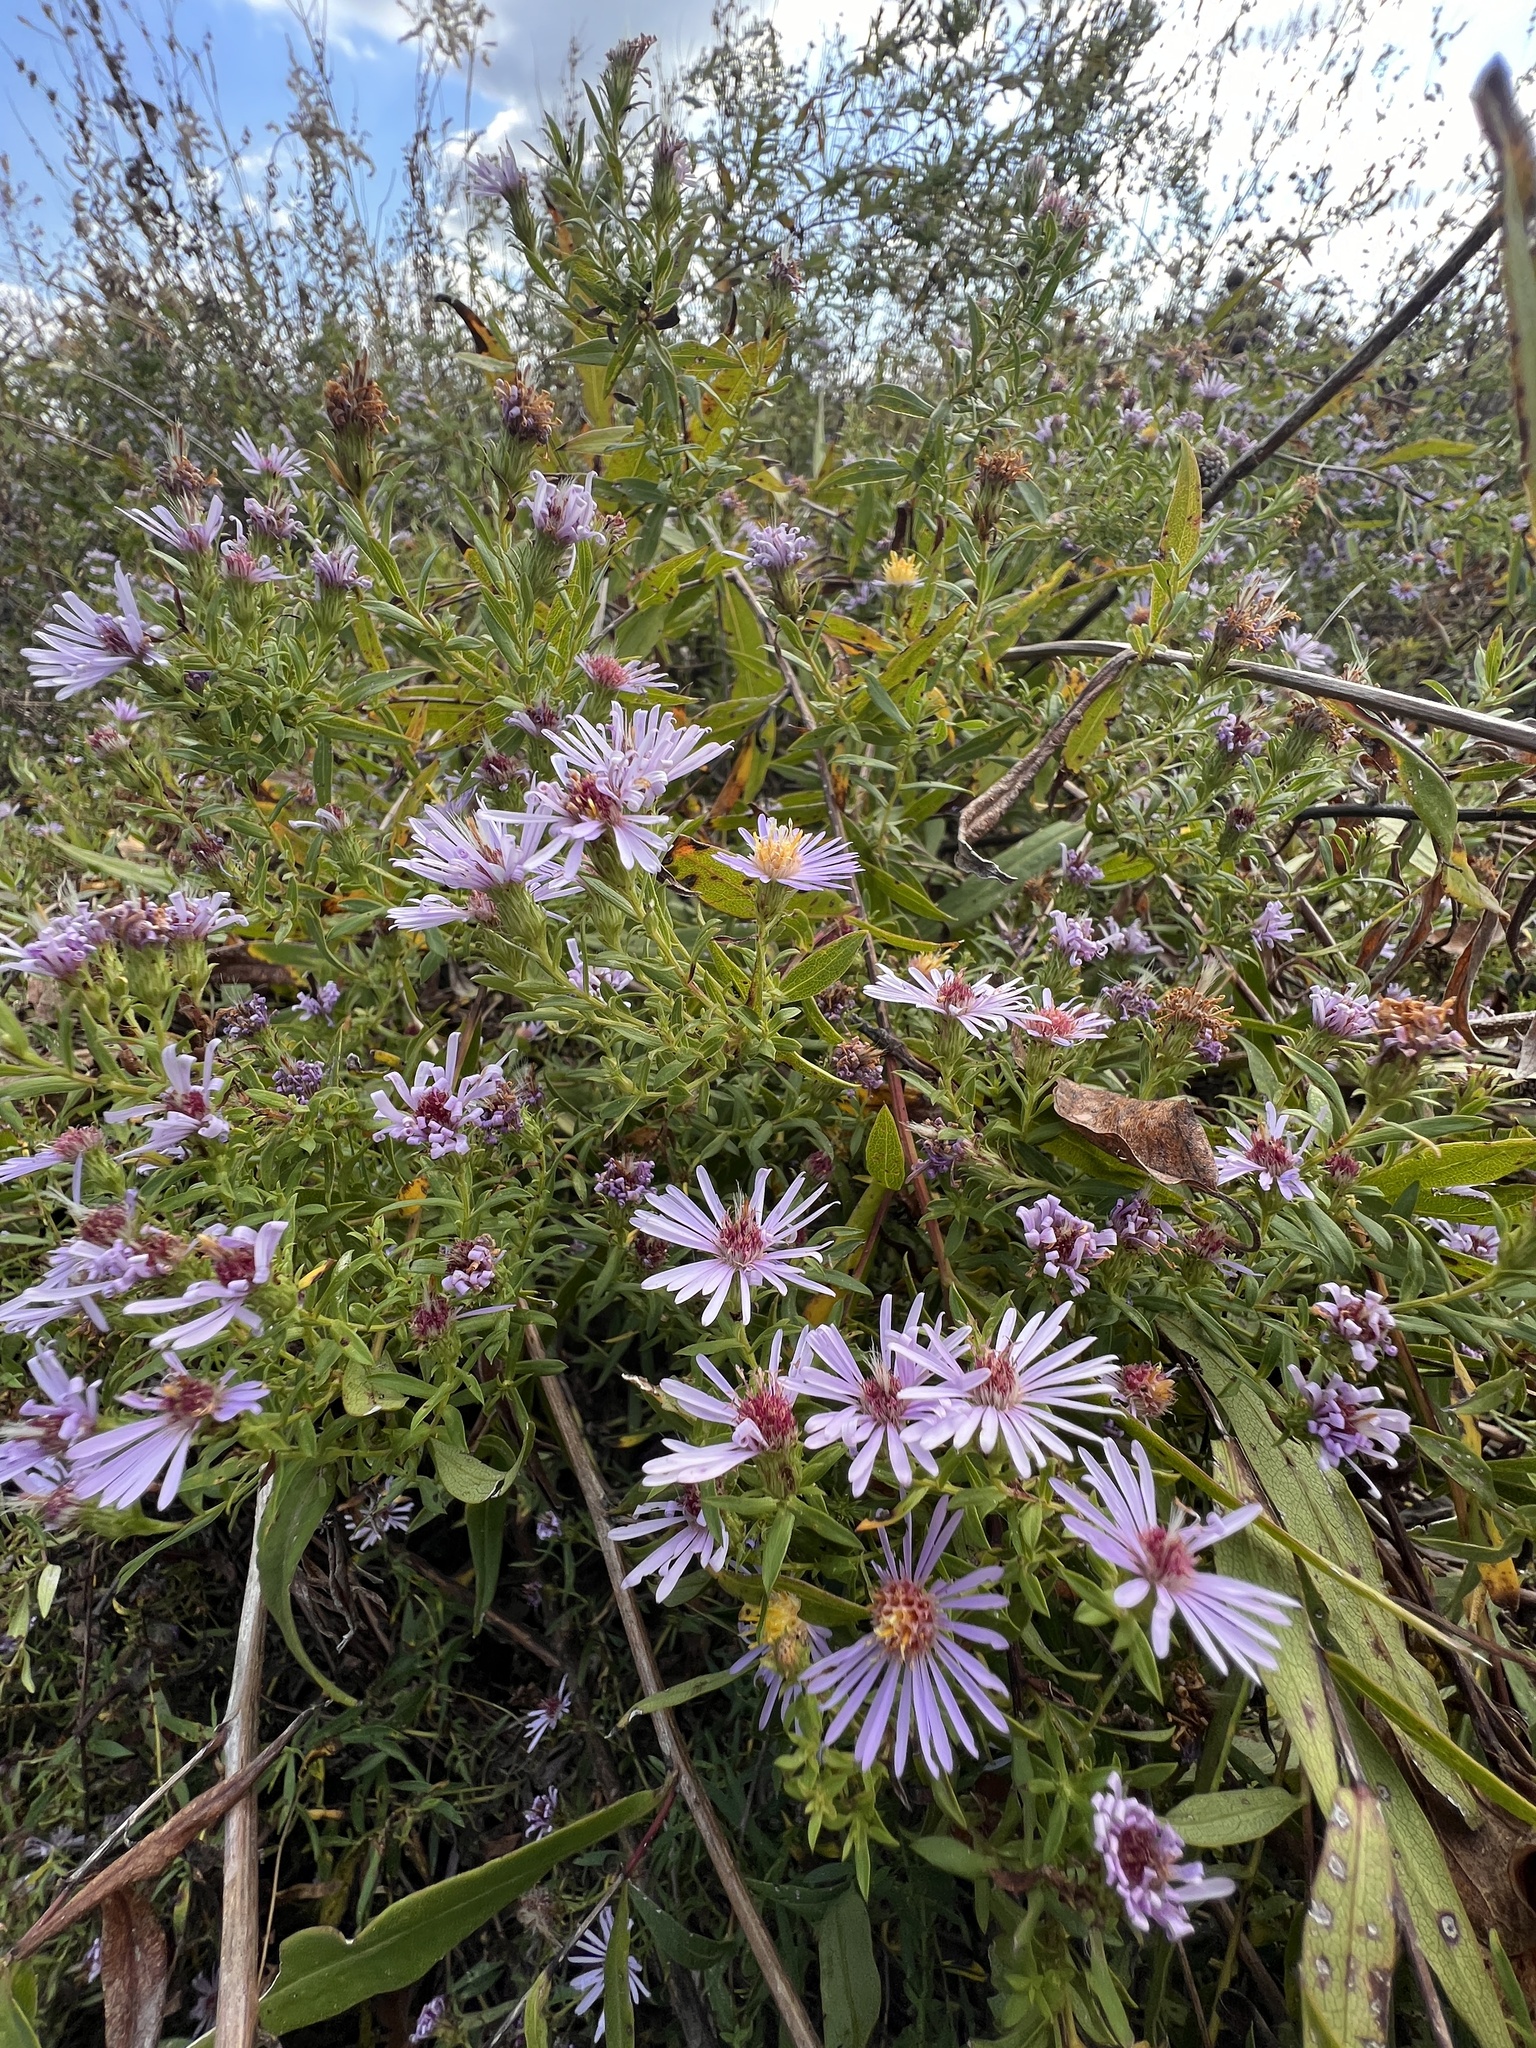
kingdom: Plantae
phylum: Tracheophyta
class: Magnoliopsida
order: Asterales
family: Asteraceae
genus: Symphyotrichum
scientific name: Symphyotrichum praealtum
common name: Willow aster
